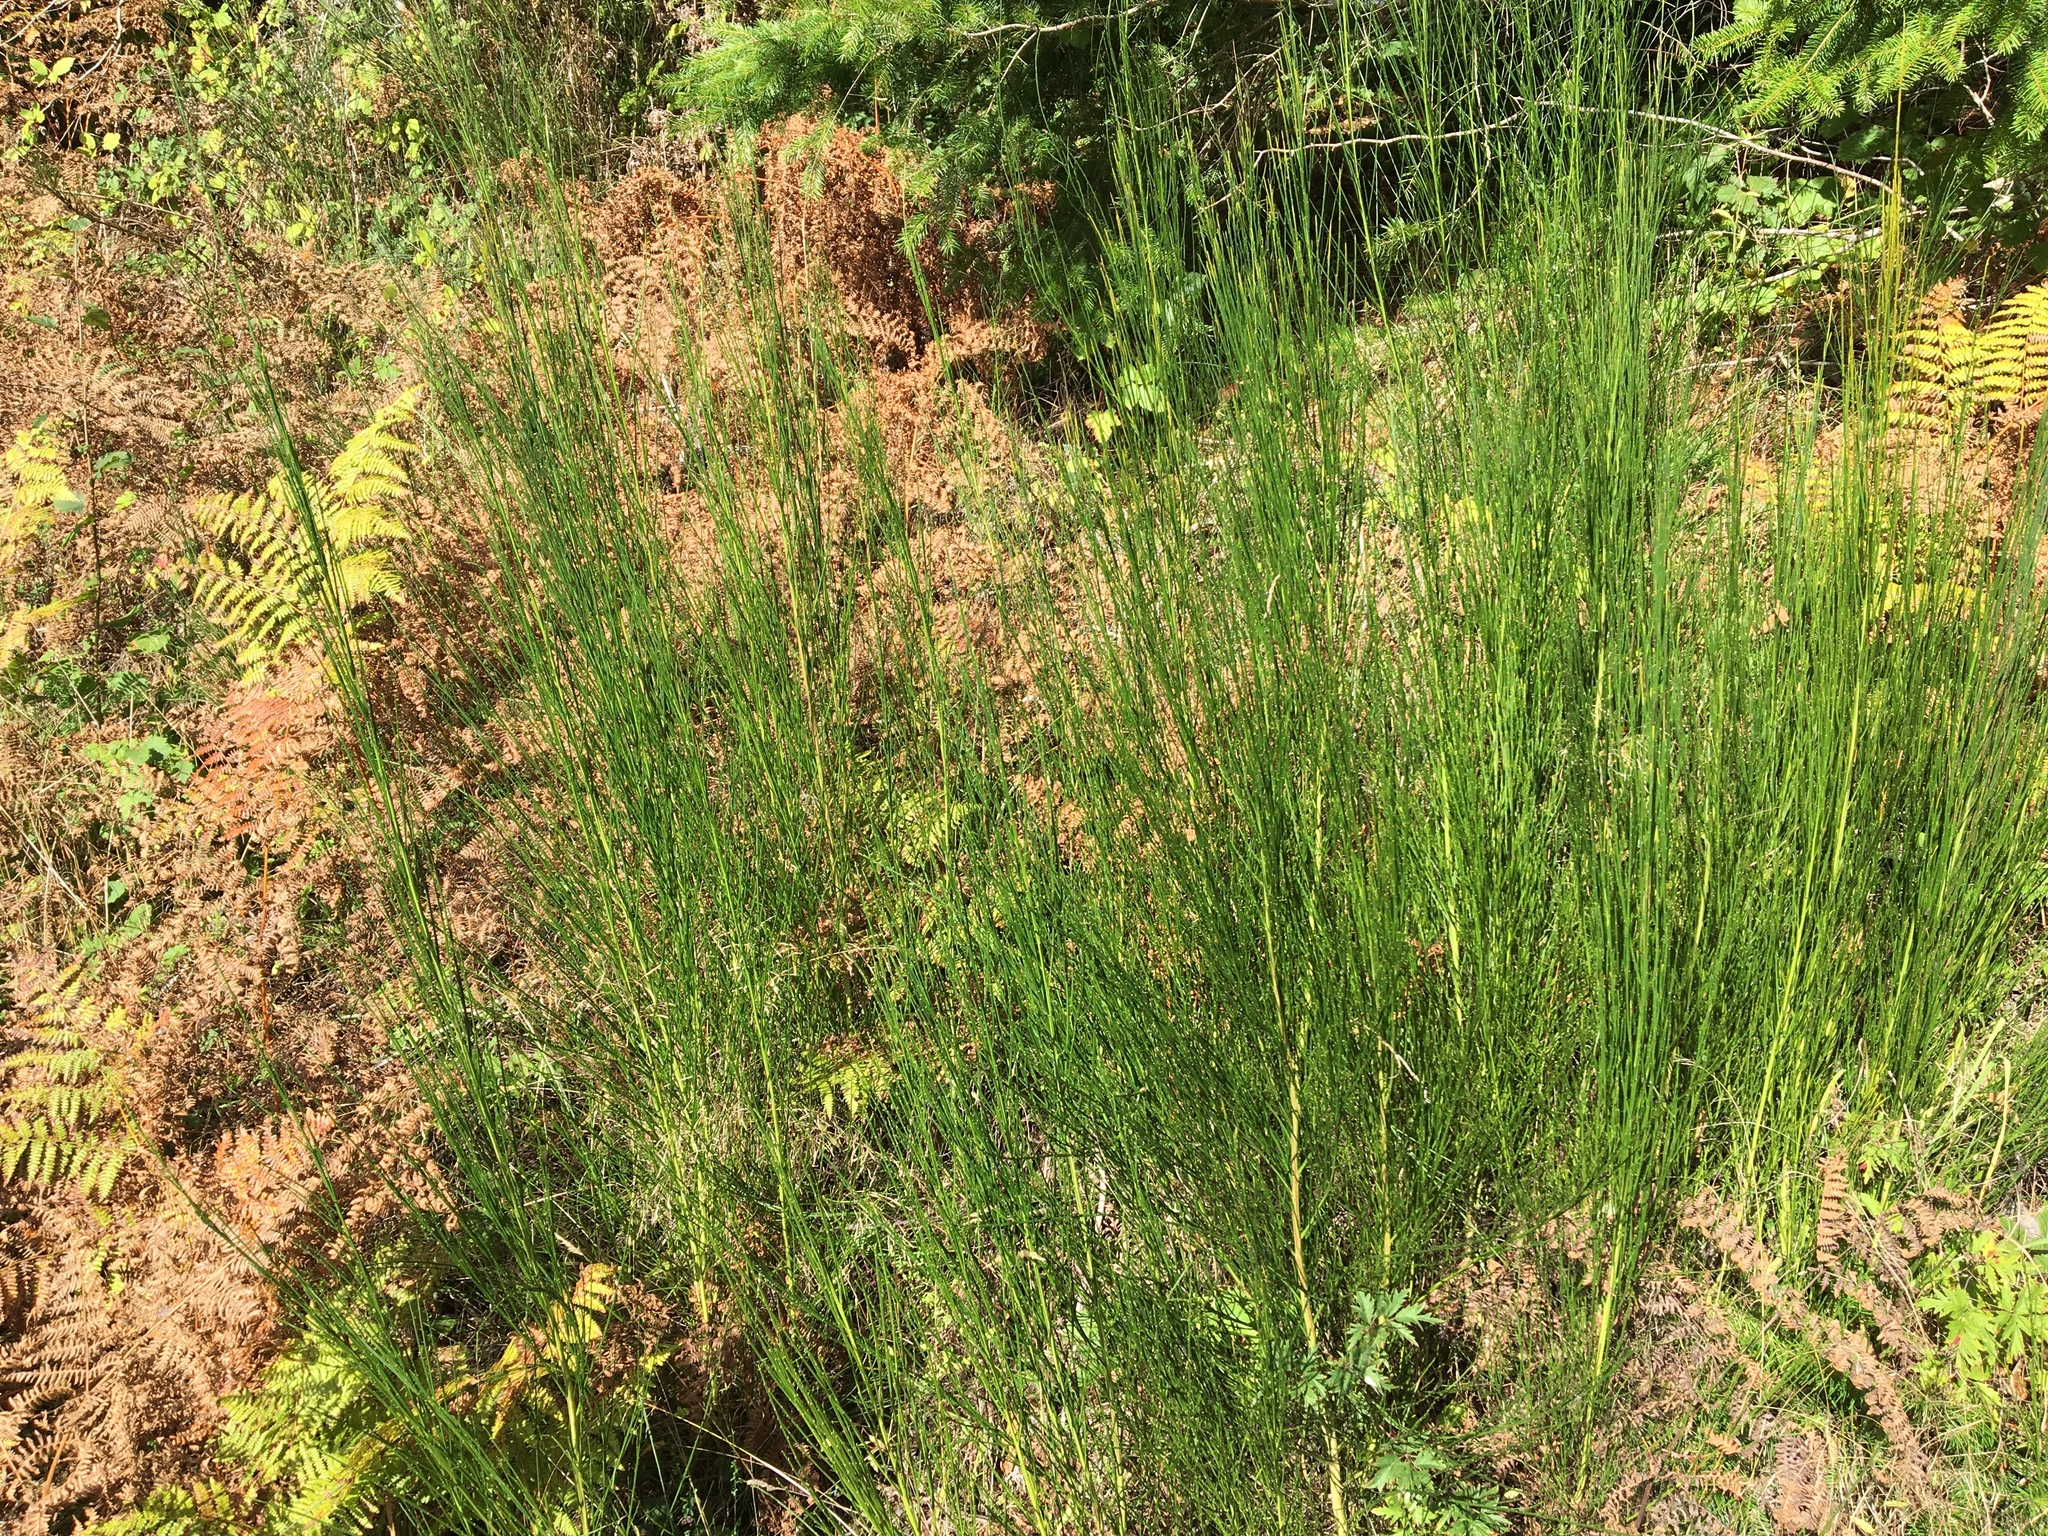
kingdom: Plantae
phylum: Tracheophyta
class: Magnoliopsida
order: Fabales
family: Fabaceae
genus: Cytisus
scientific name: Cytisus scoparius
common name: Scotch broom
